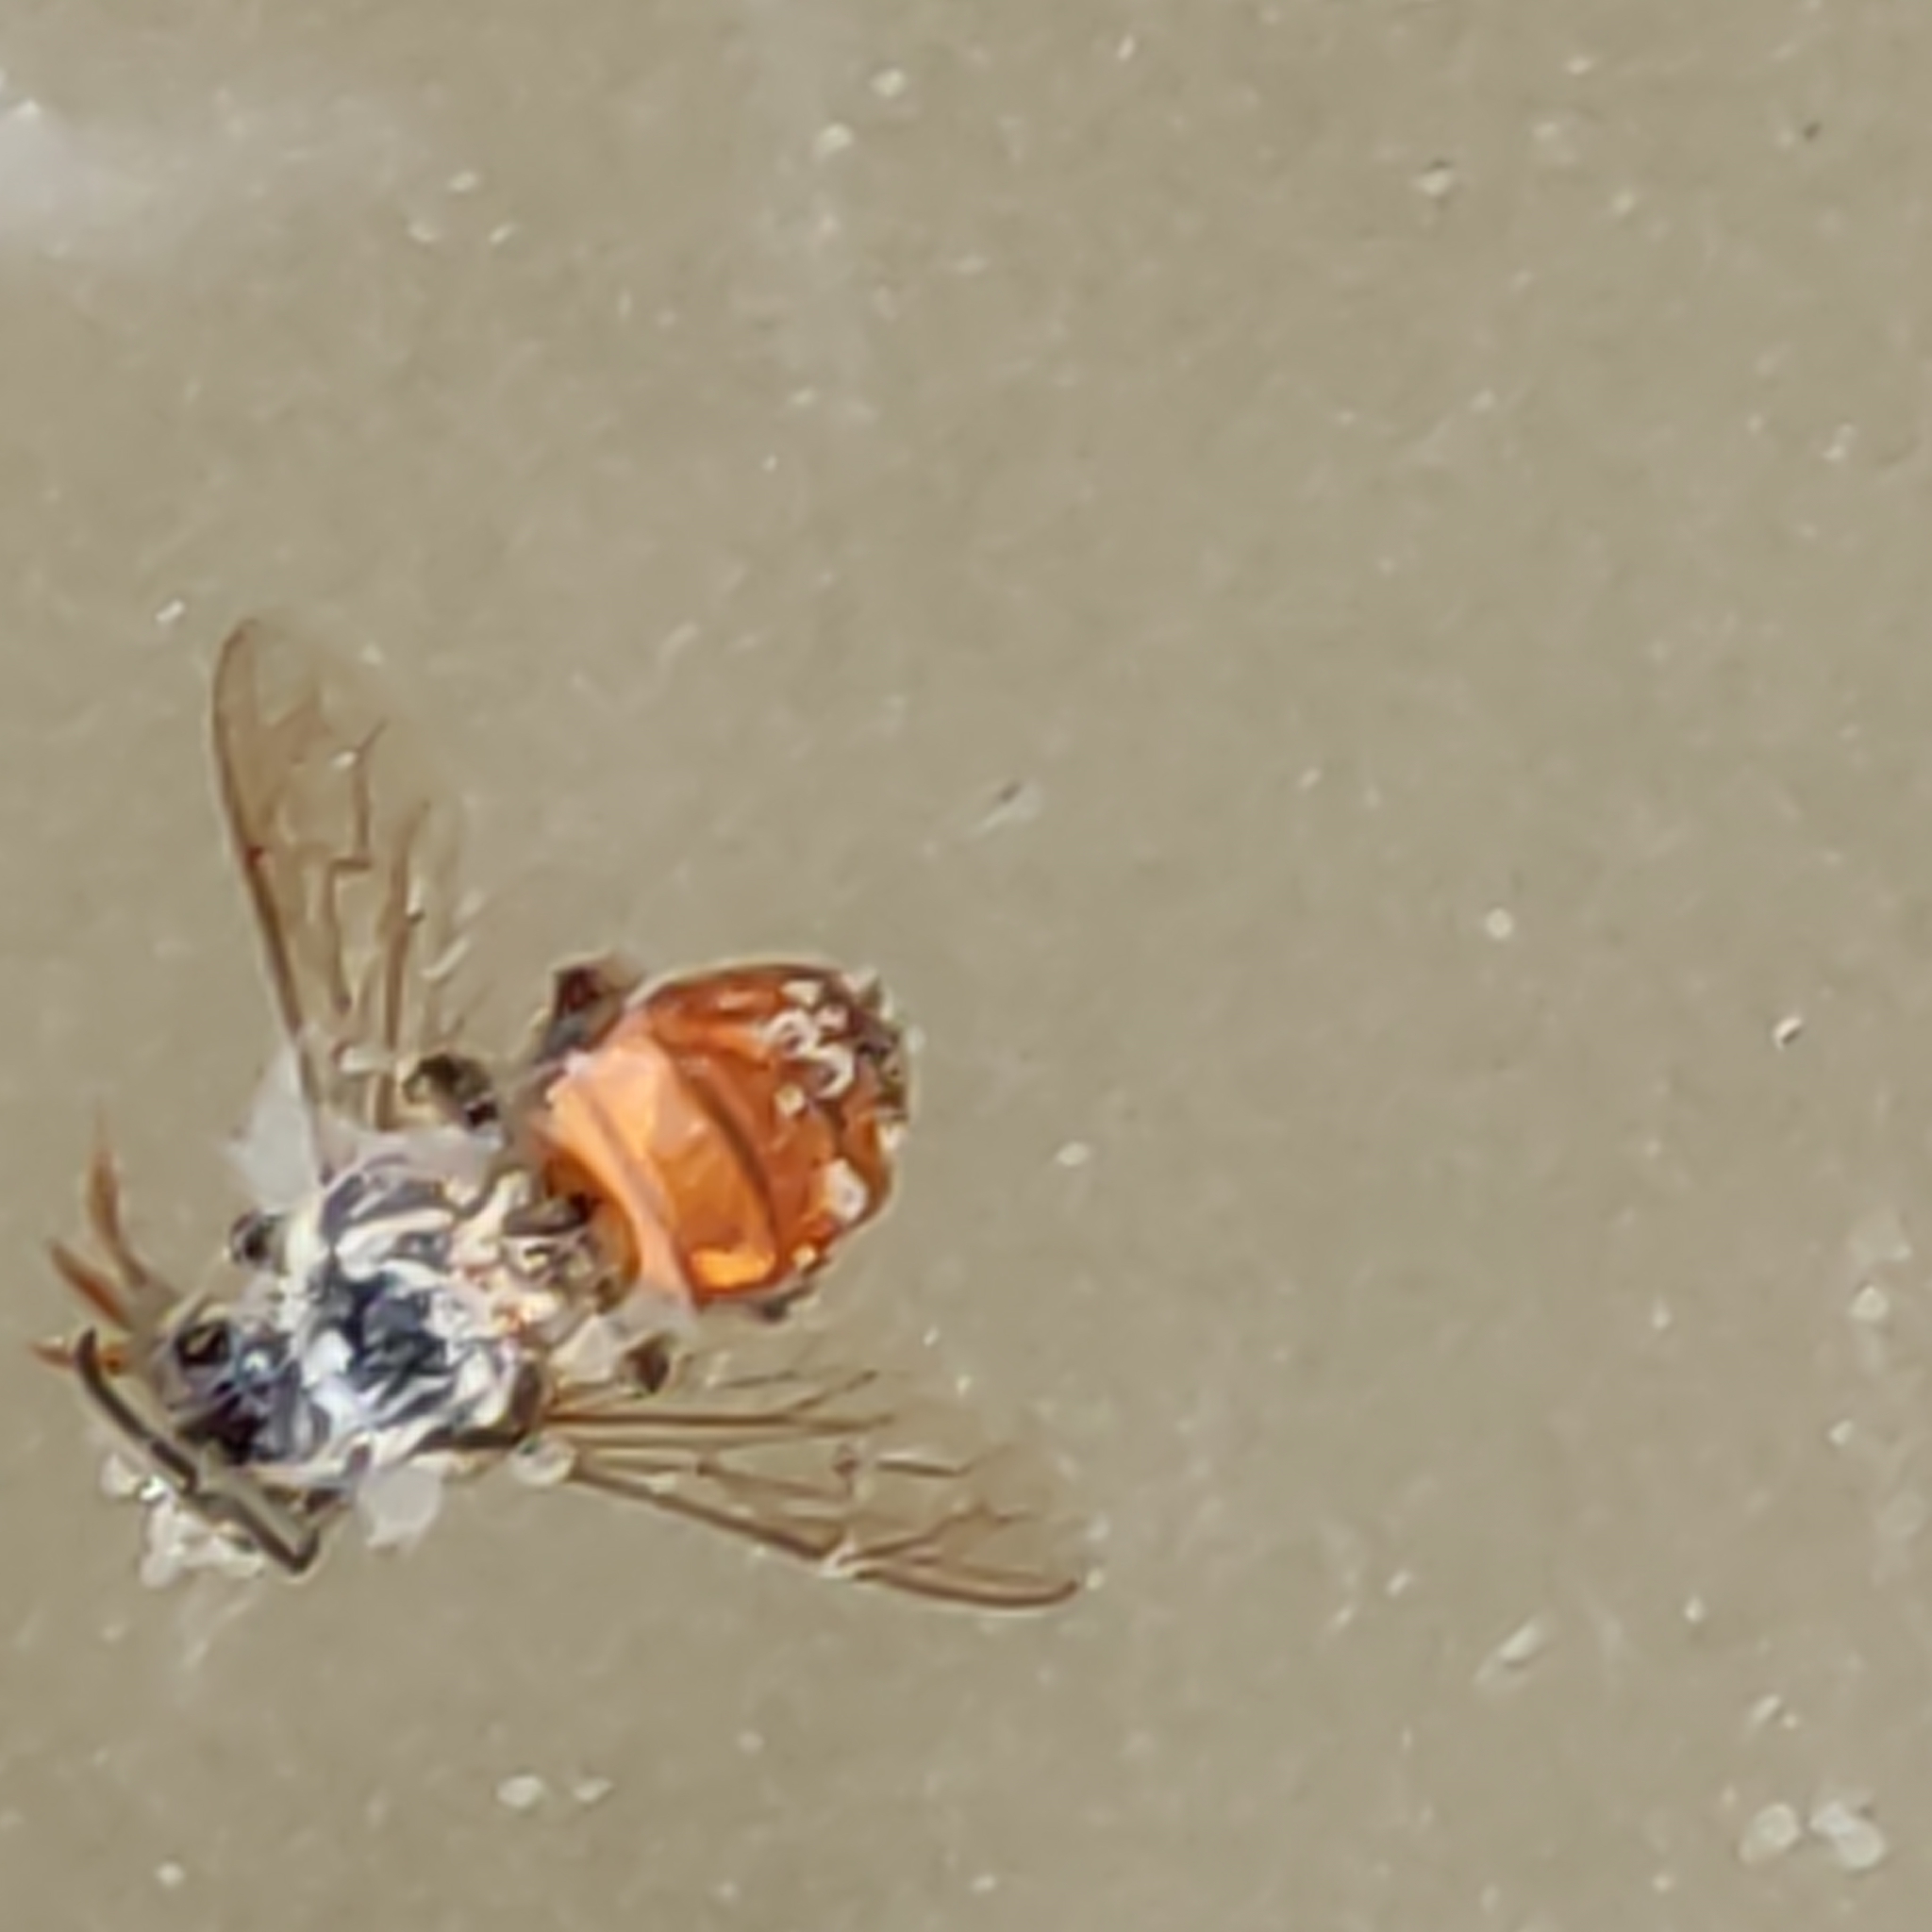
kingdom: Animalia
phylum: Arthropoda
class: Insecta
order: Hymenoptera
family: Apidae
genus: Apis
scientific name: Apis mellifera
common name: Honey bee
